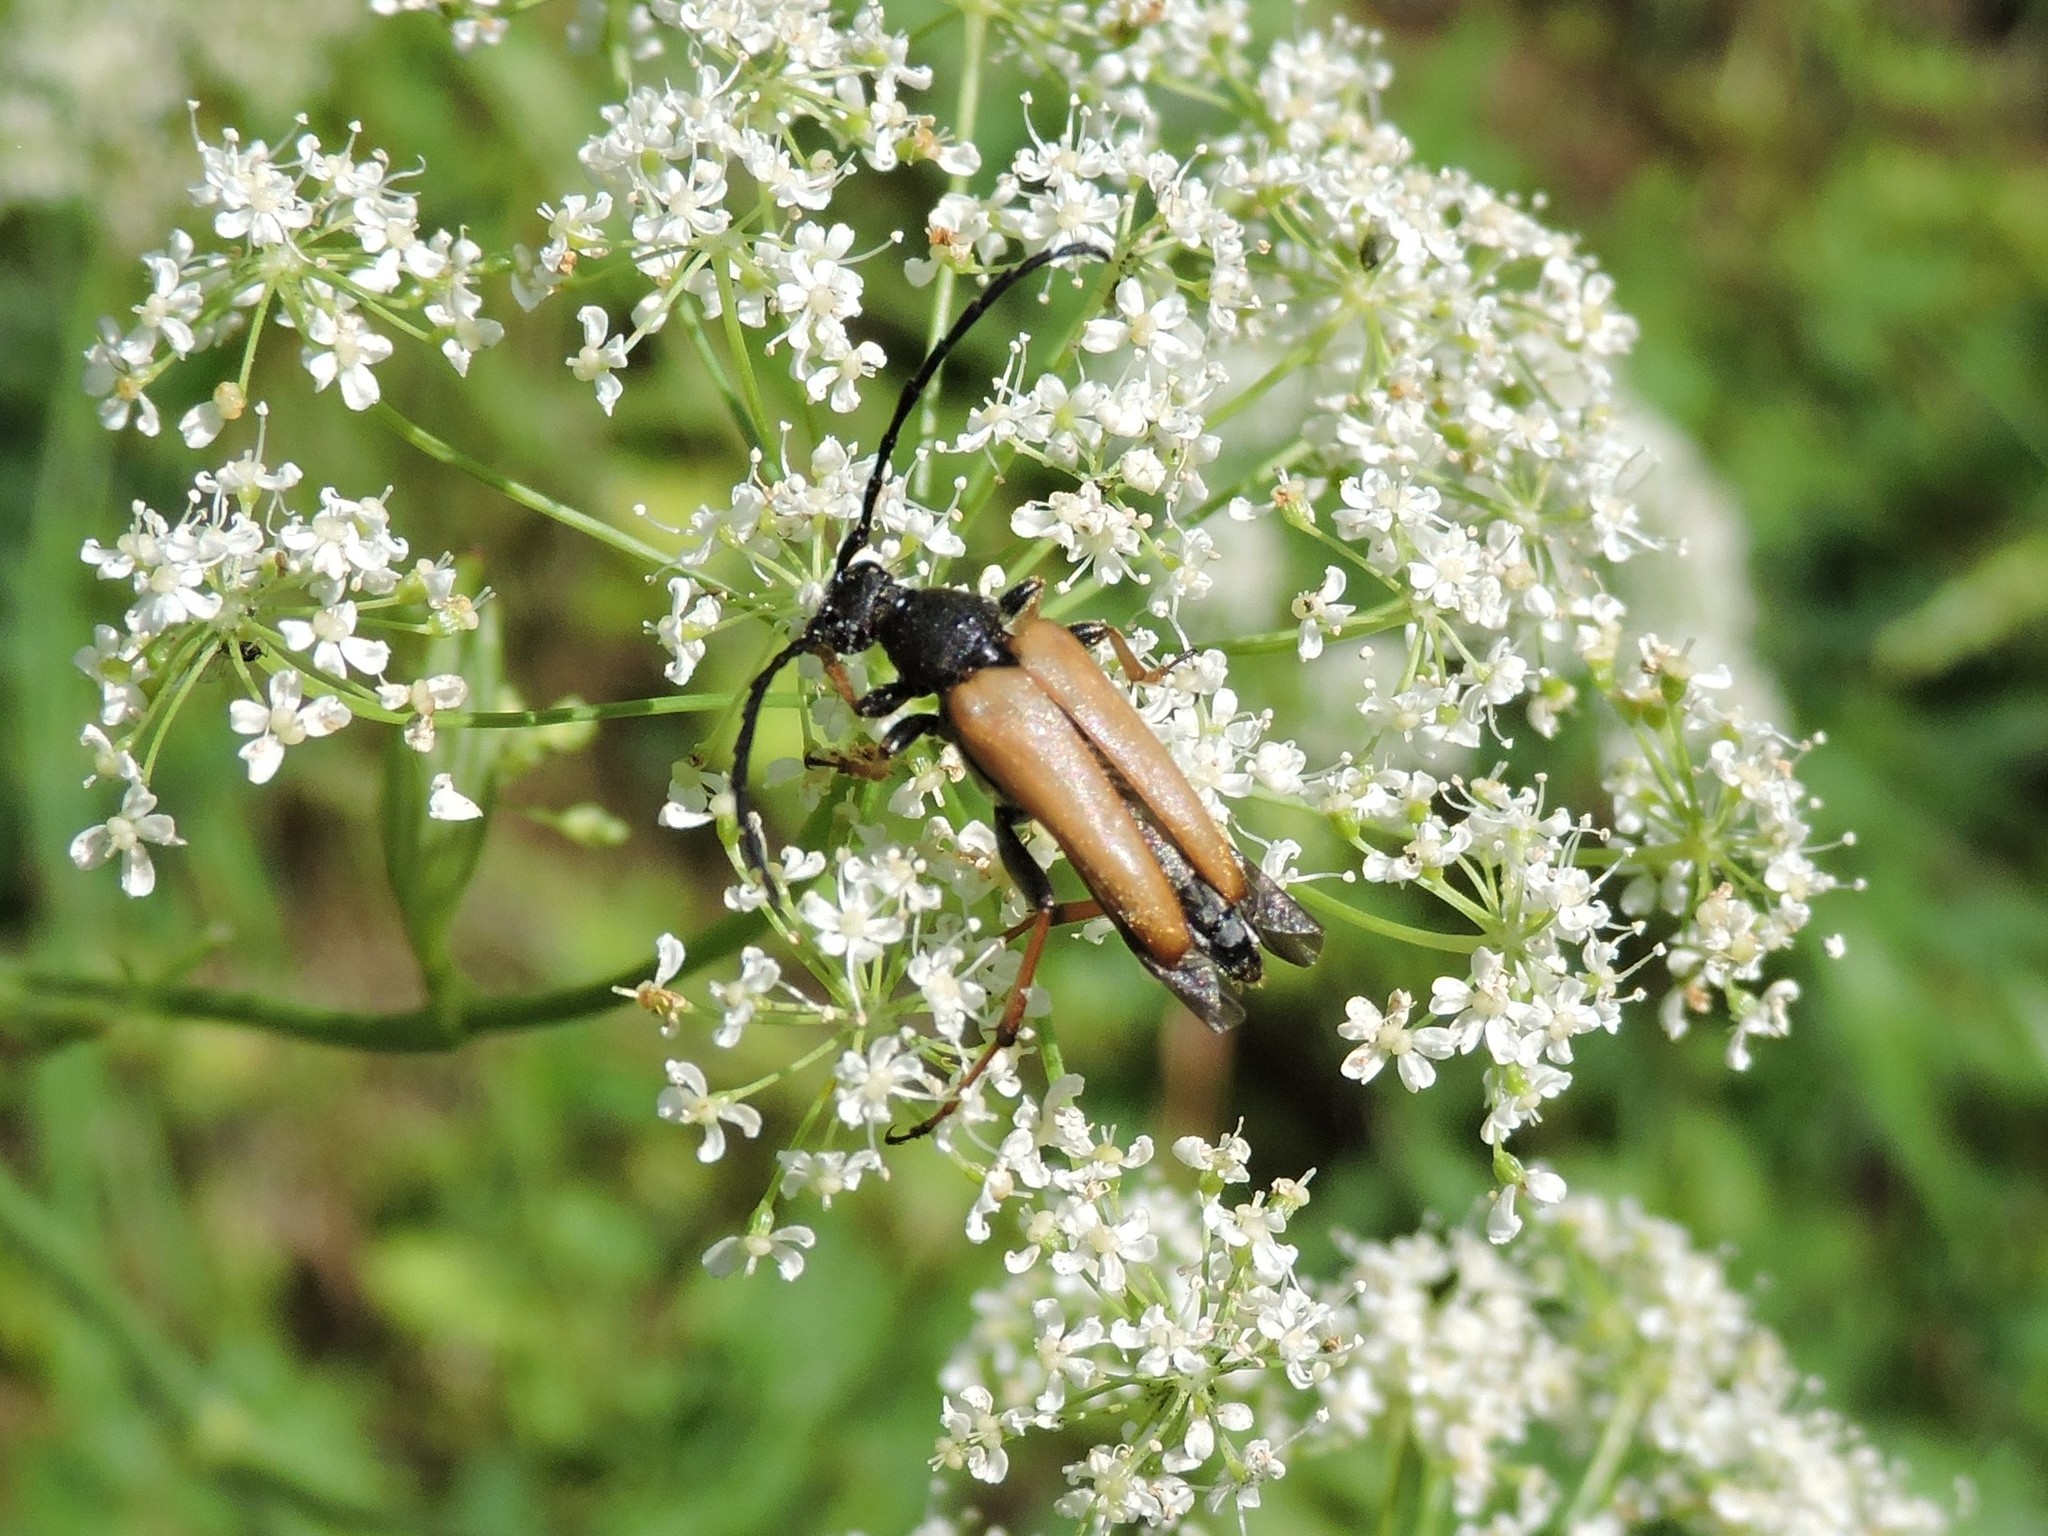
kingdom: Animalia
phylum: Arthropoda
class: Insecta
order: Coleoptera
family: Cerambycidae
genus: Stictoleptura
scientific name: Stictoleptura rubra
